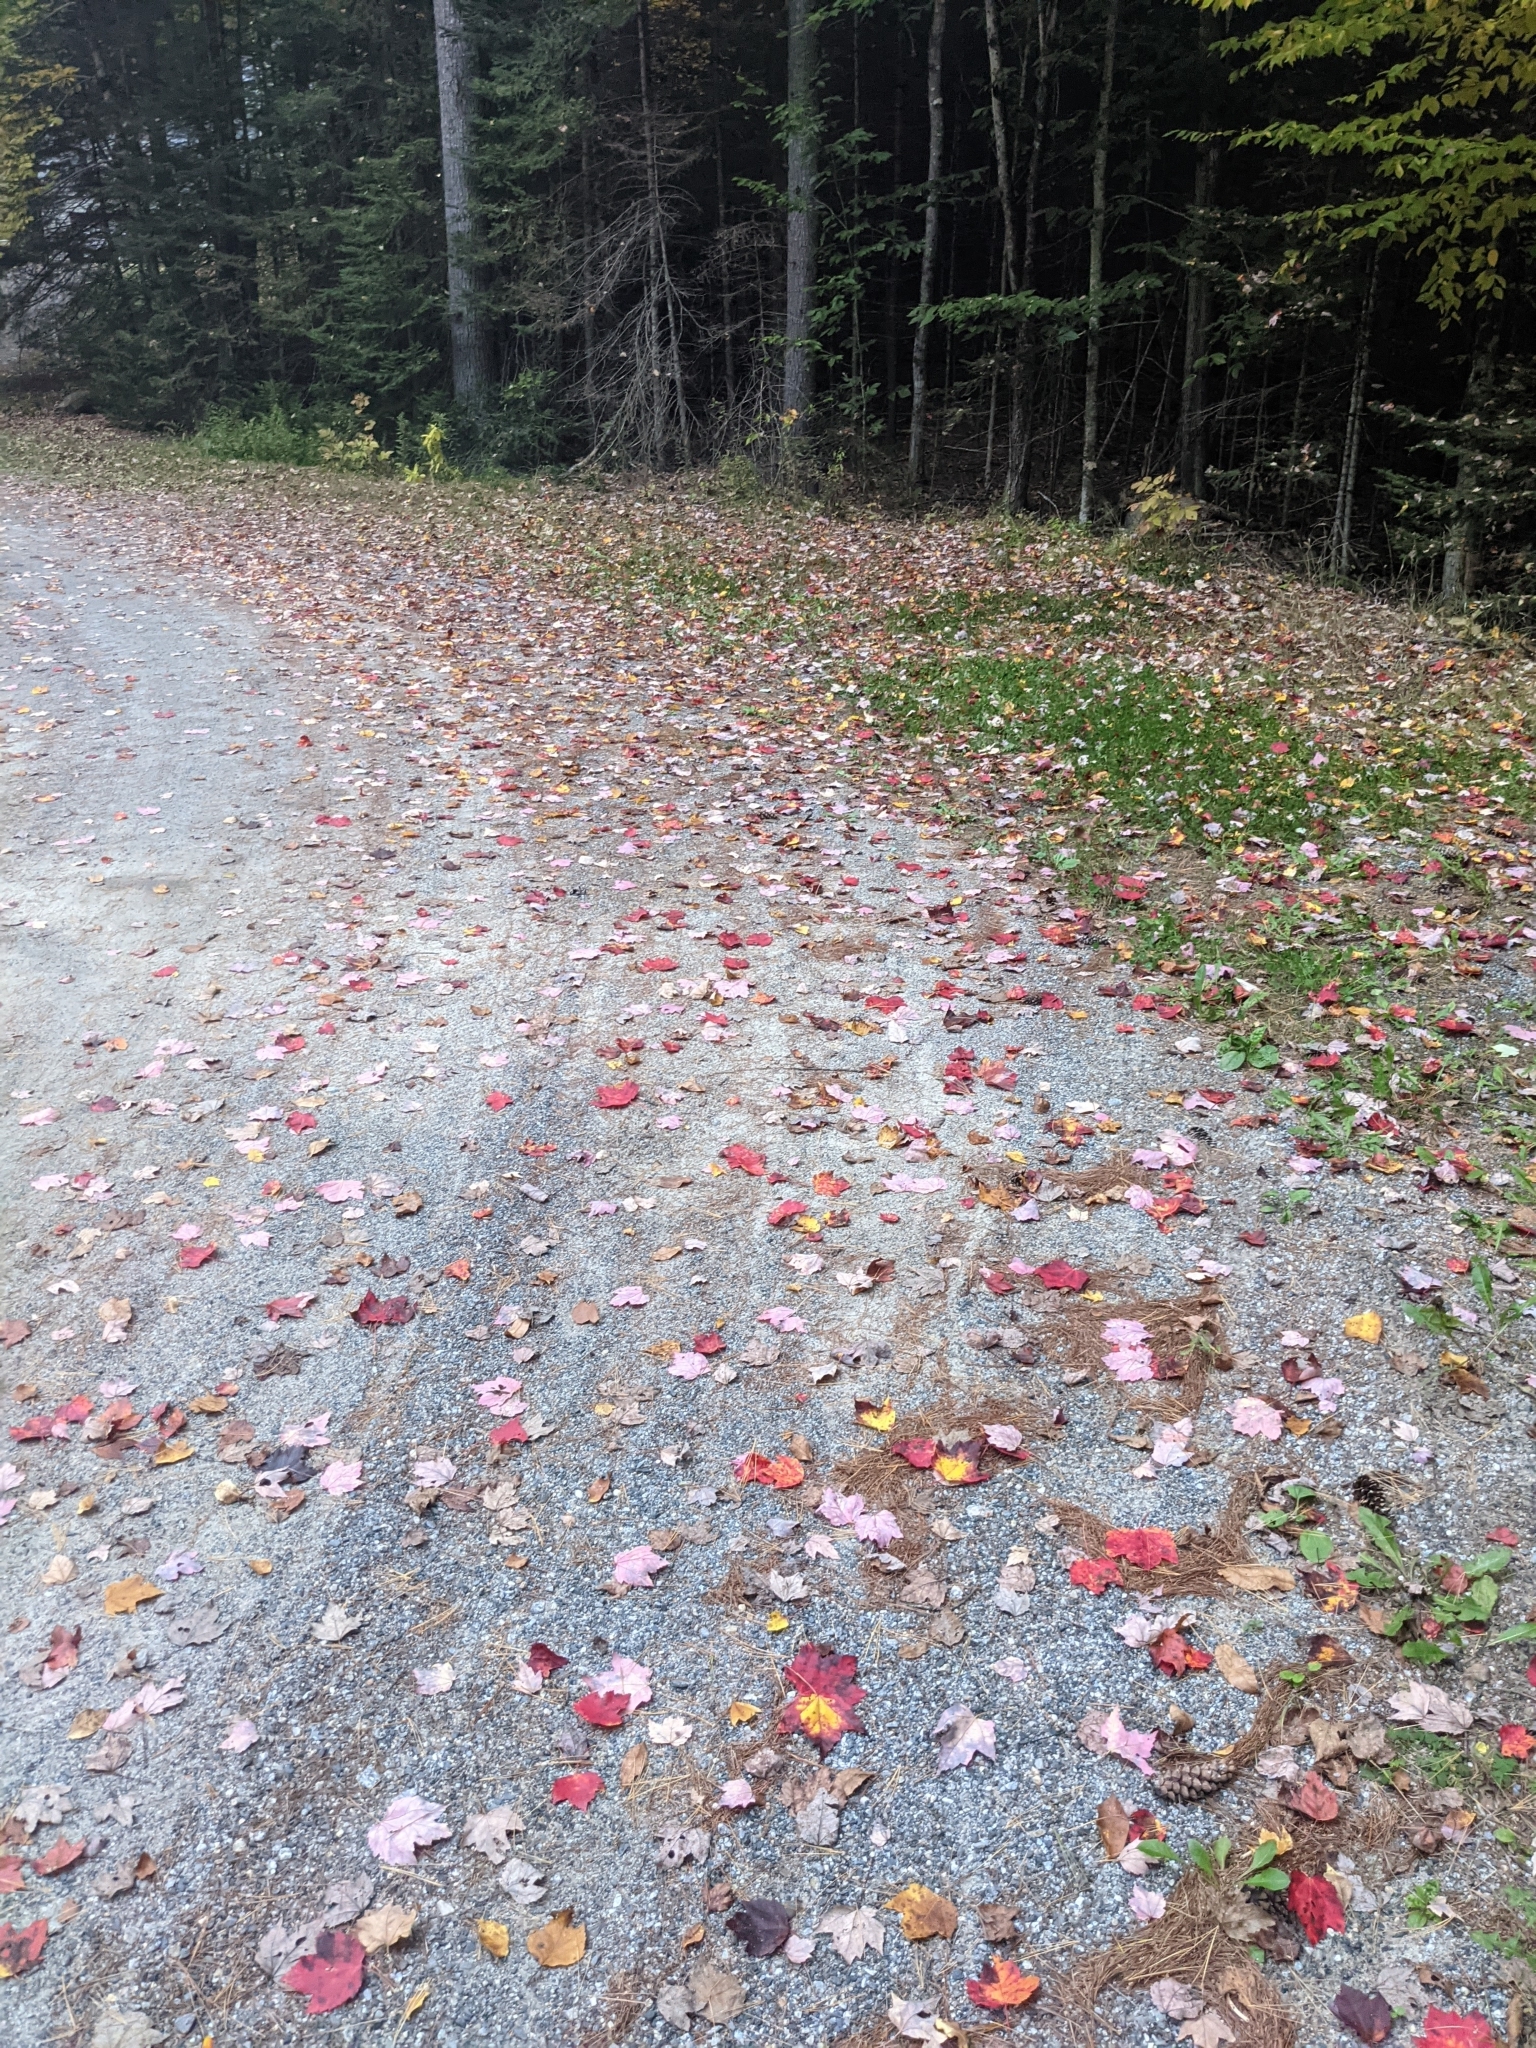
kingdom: Plantae
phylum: Tracheophyta
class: Magnoliopsida
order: Sapindales
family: Sapindaceae
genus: Acer
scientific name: Acer rubrum
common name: Red maple
